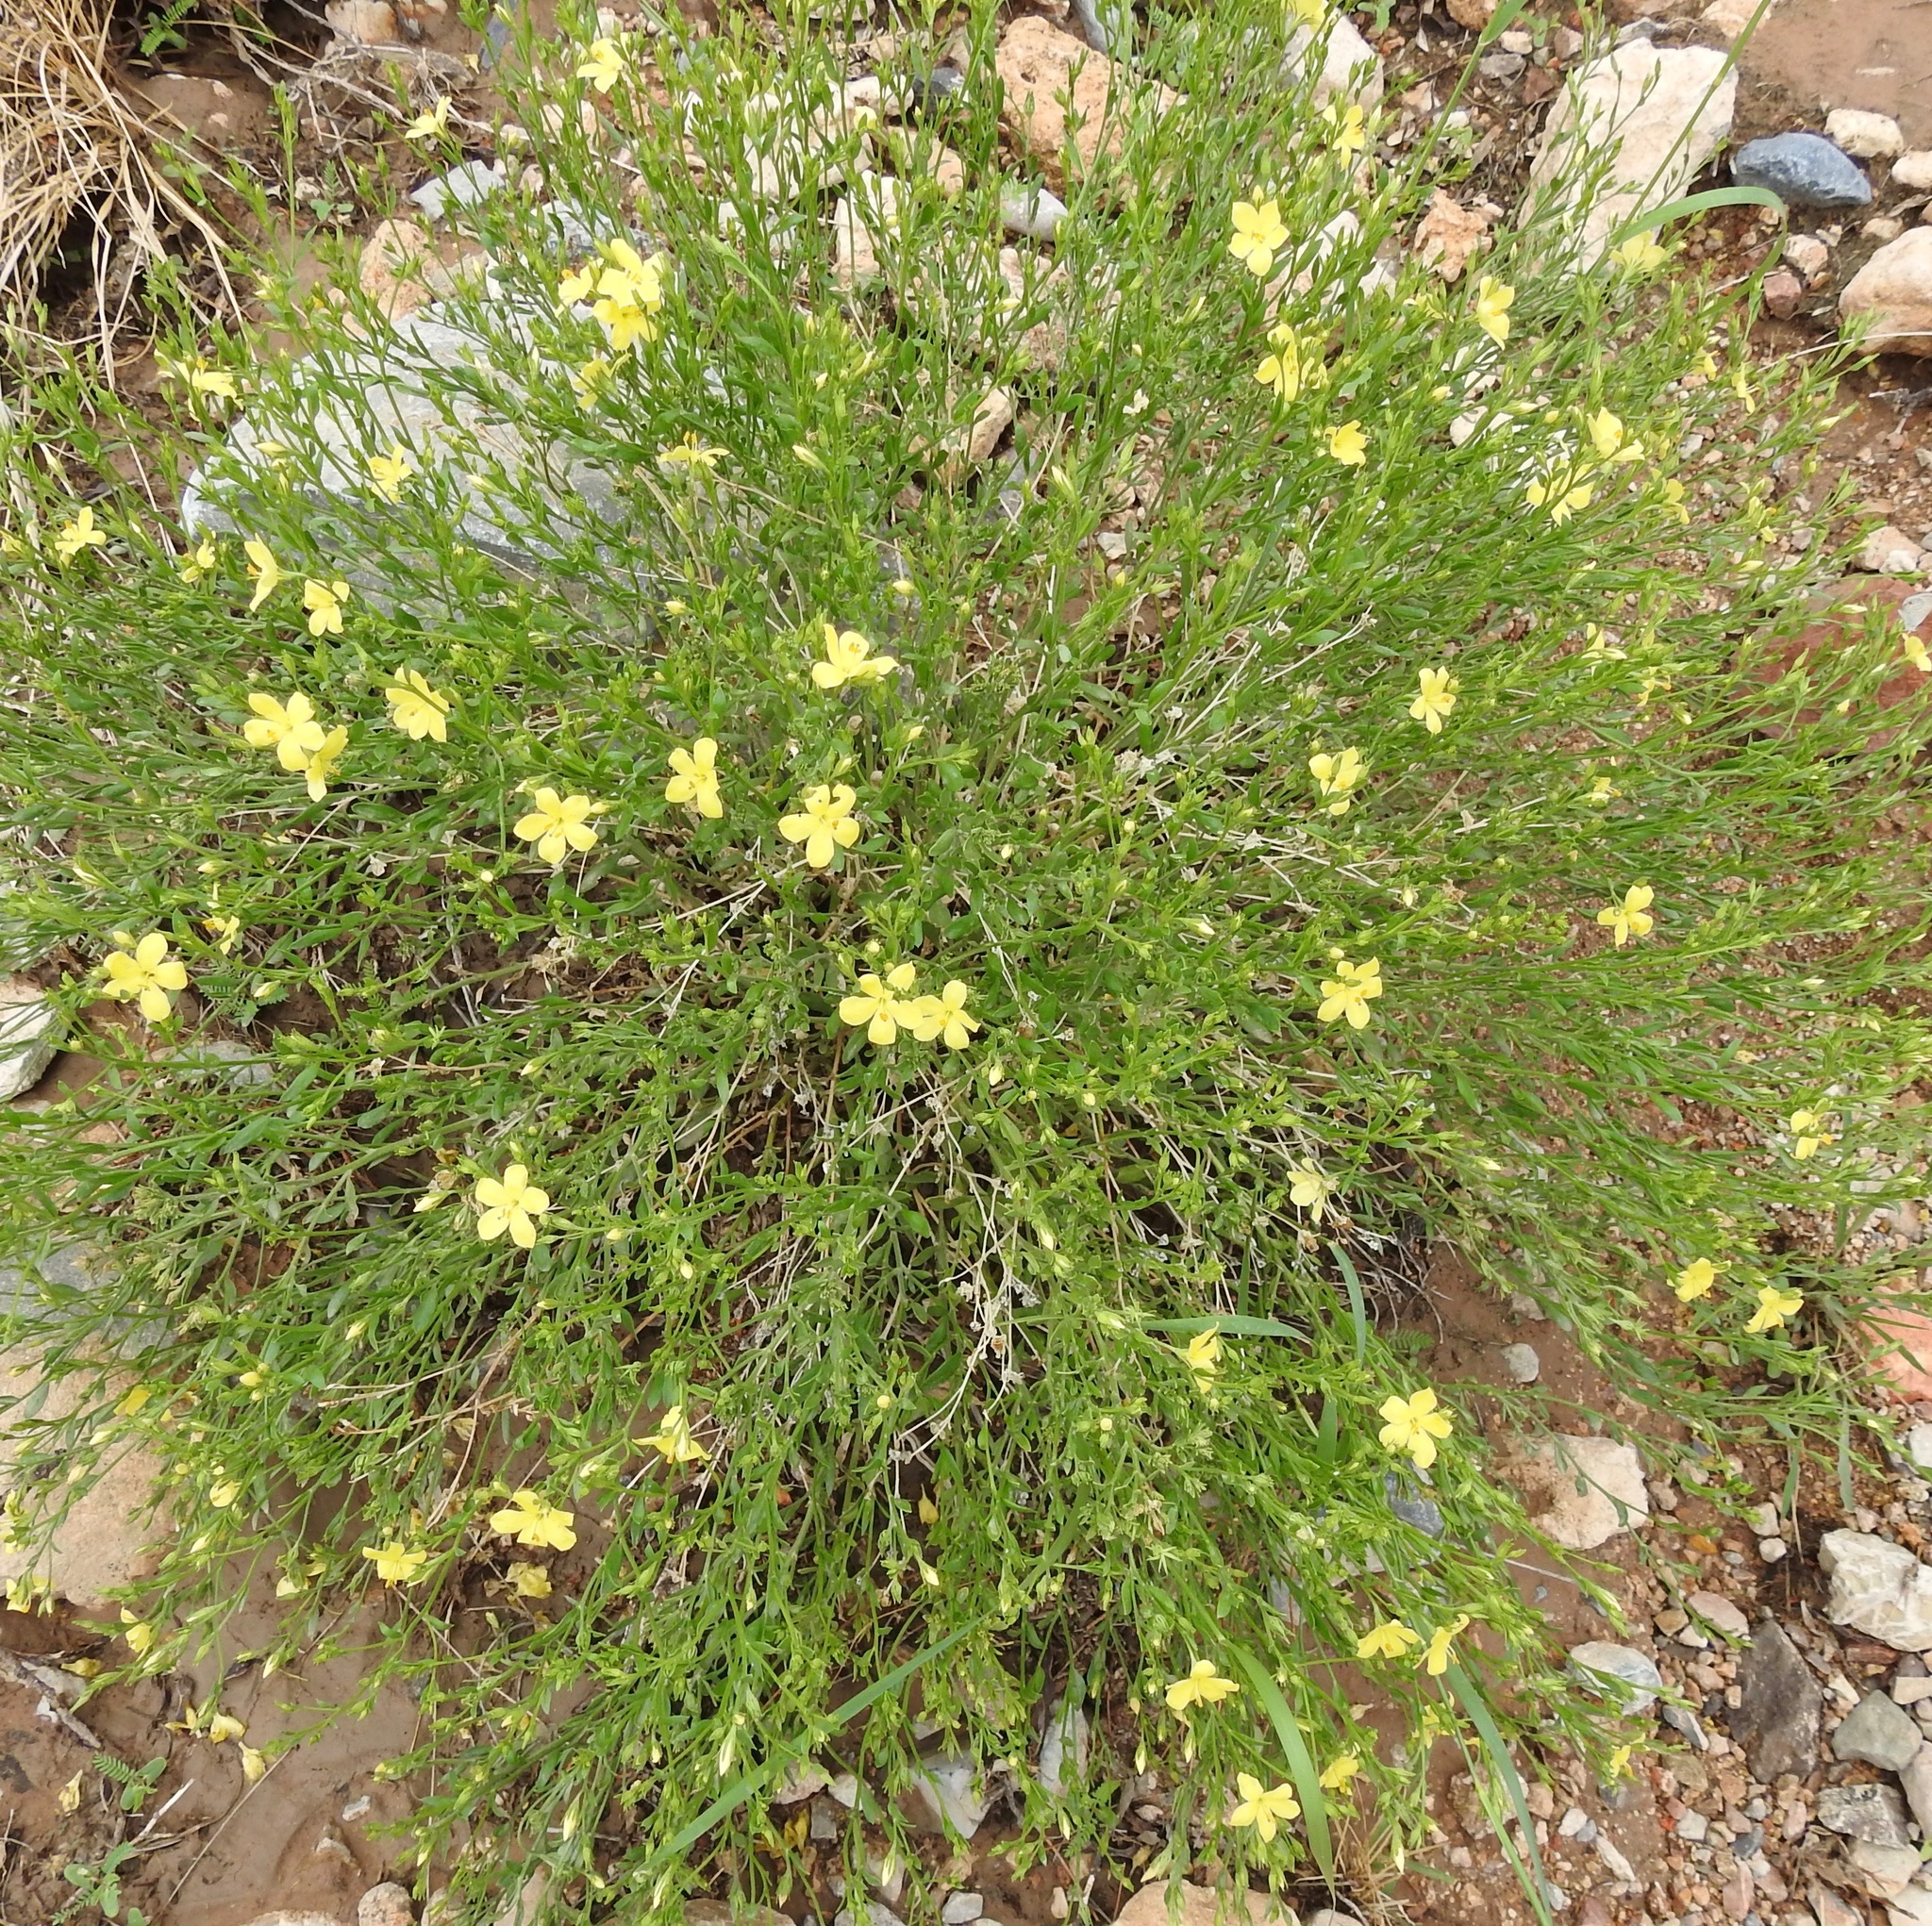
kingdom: Plantae
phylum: Tracheophyta
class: Magnoliopsida
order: Lamiales
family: Oleaceae
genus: Menodora
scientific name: Menodora scabra
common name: Rough menodora
